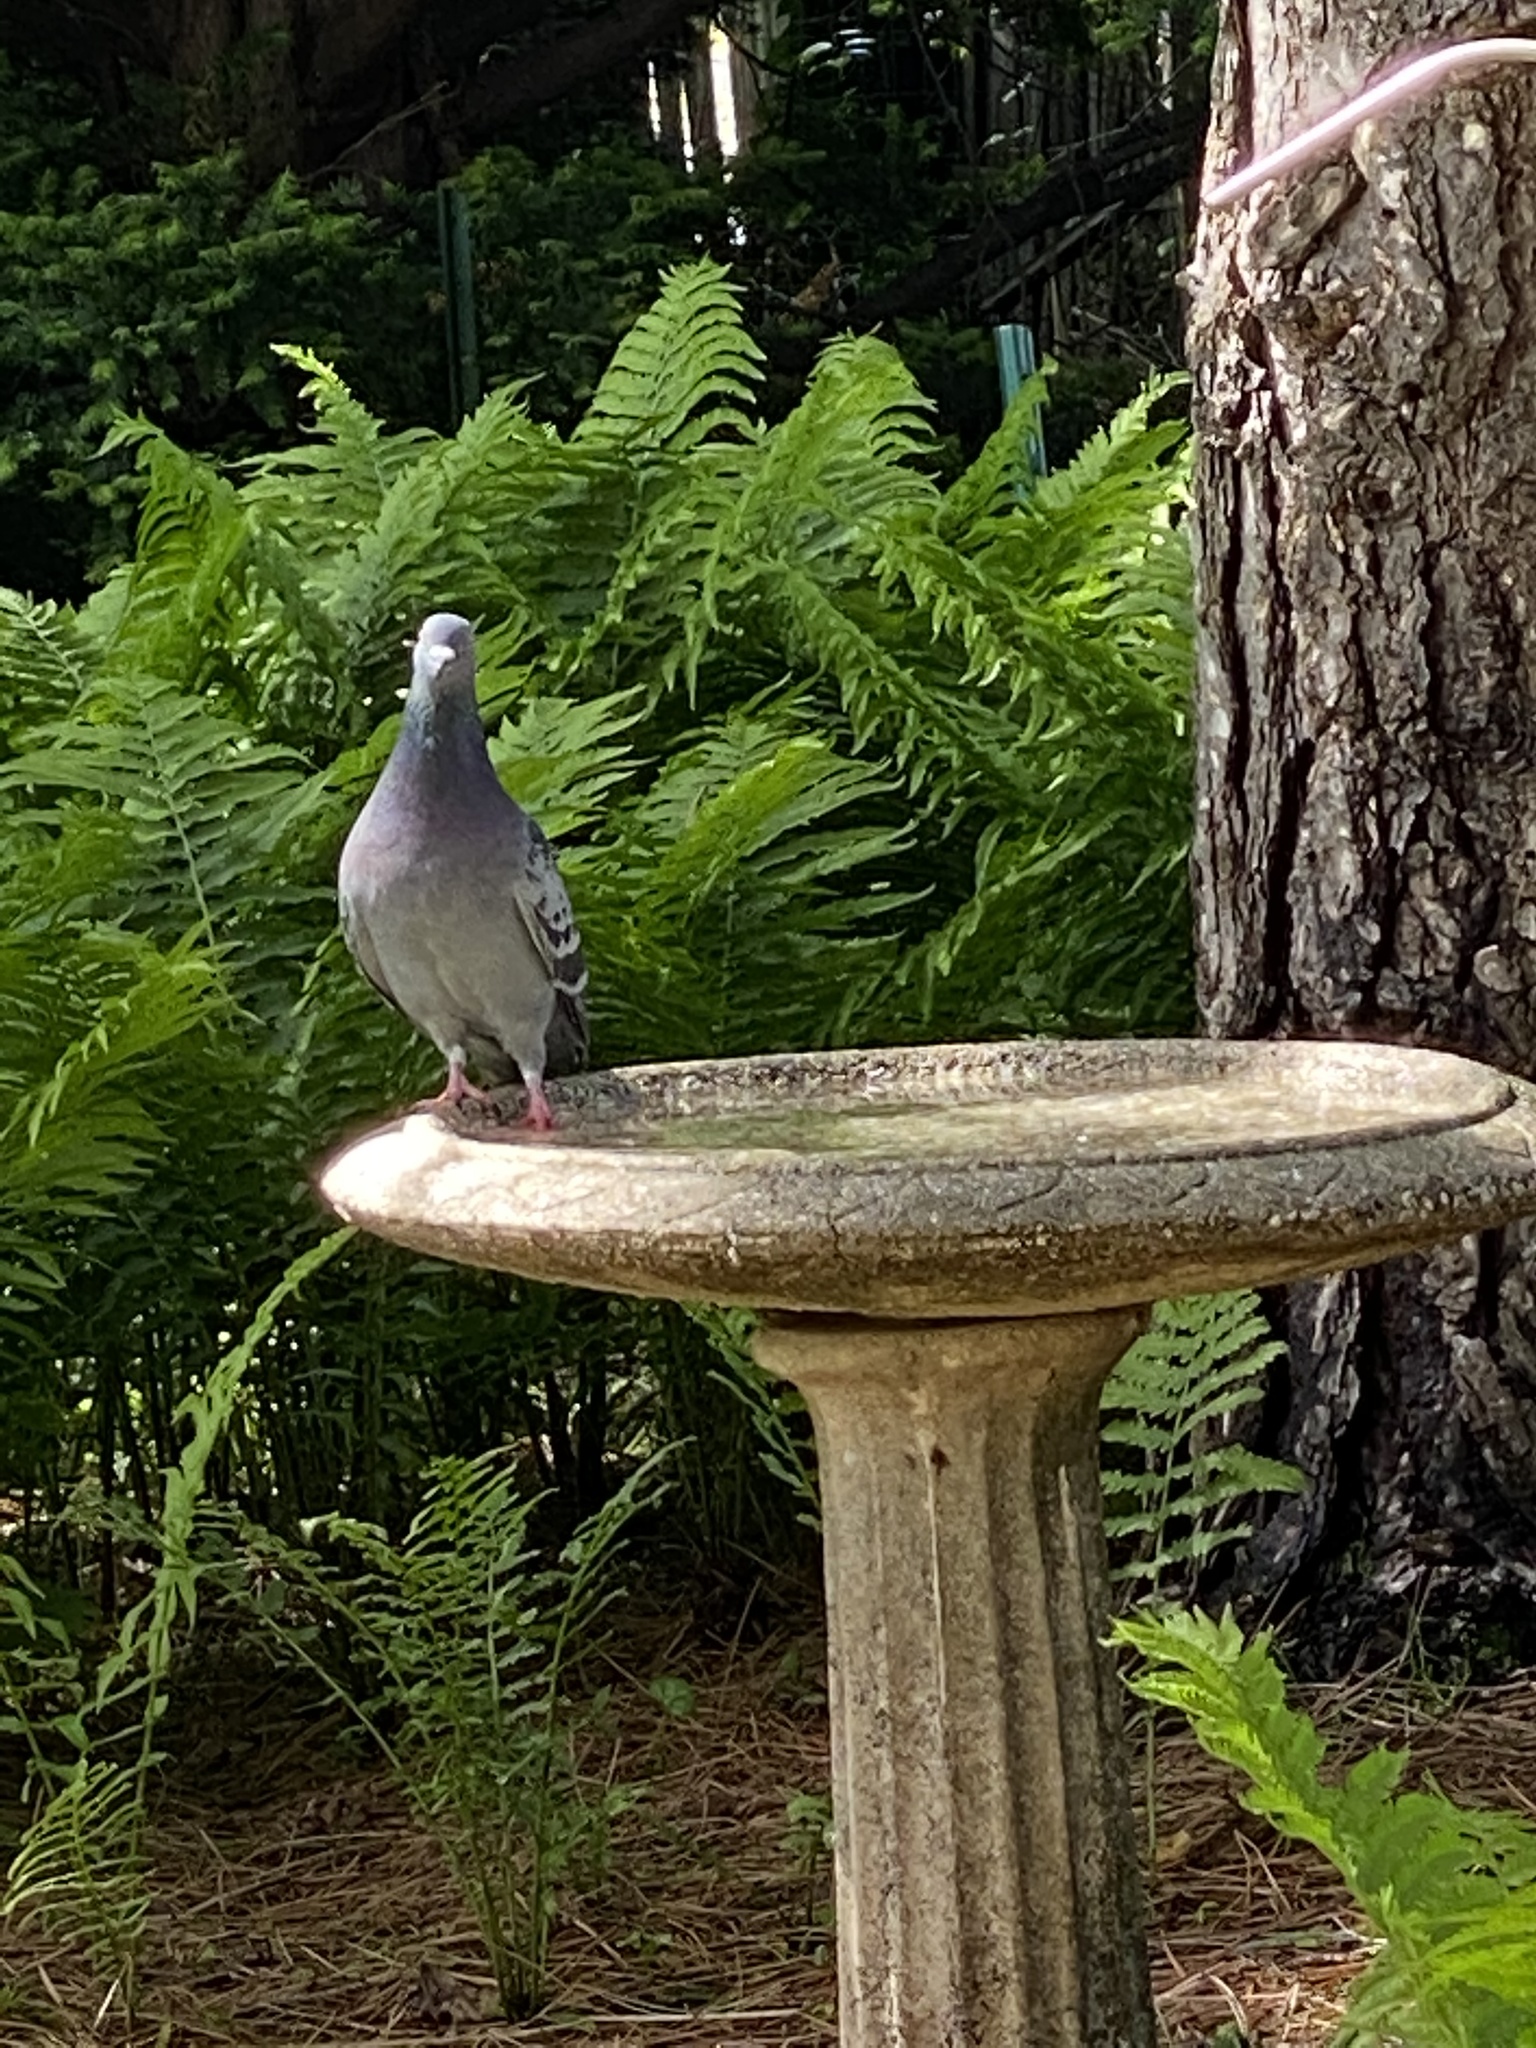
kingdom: Animalia
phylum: Chordata
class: Aves
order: Columbiformes
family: Columbidae
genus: Columba
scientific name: Columba livia
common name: Rock pigeon
